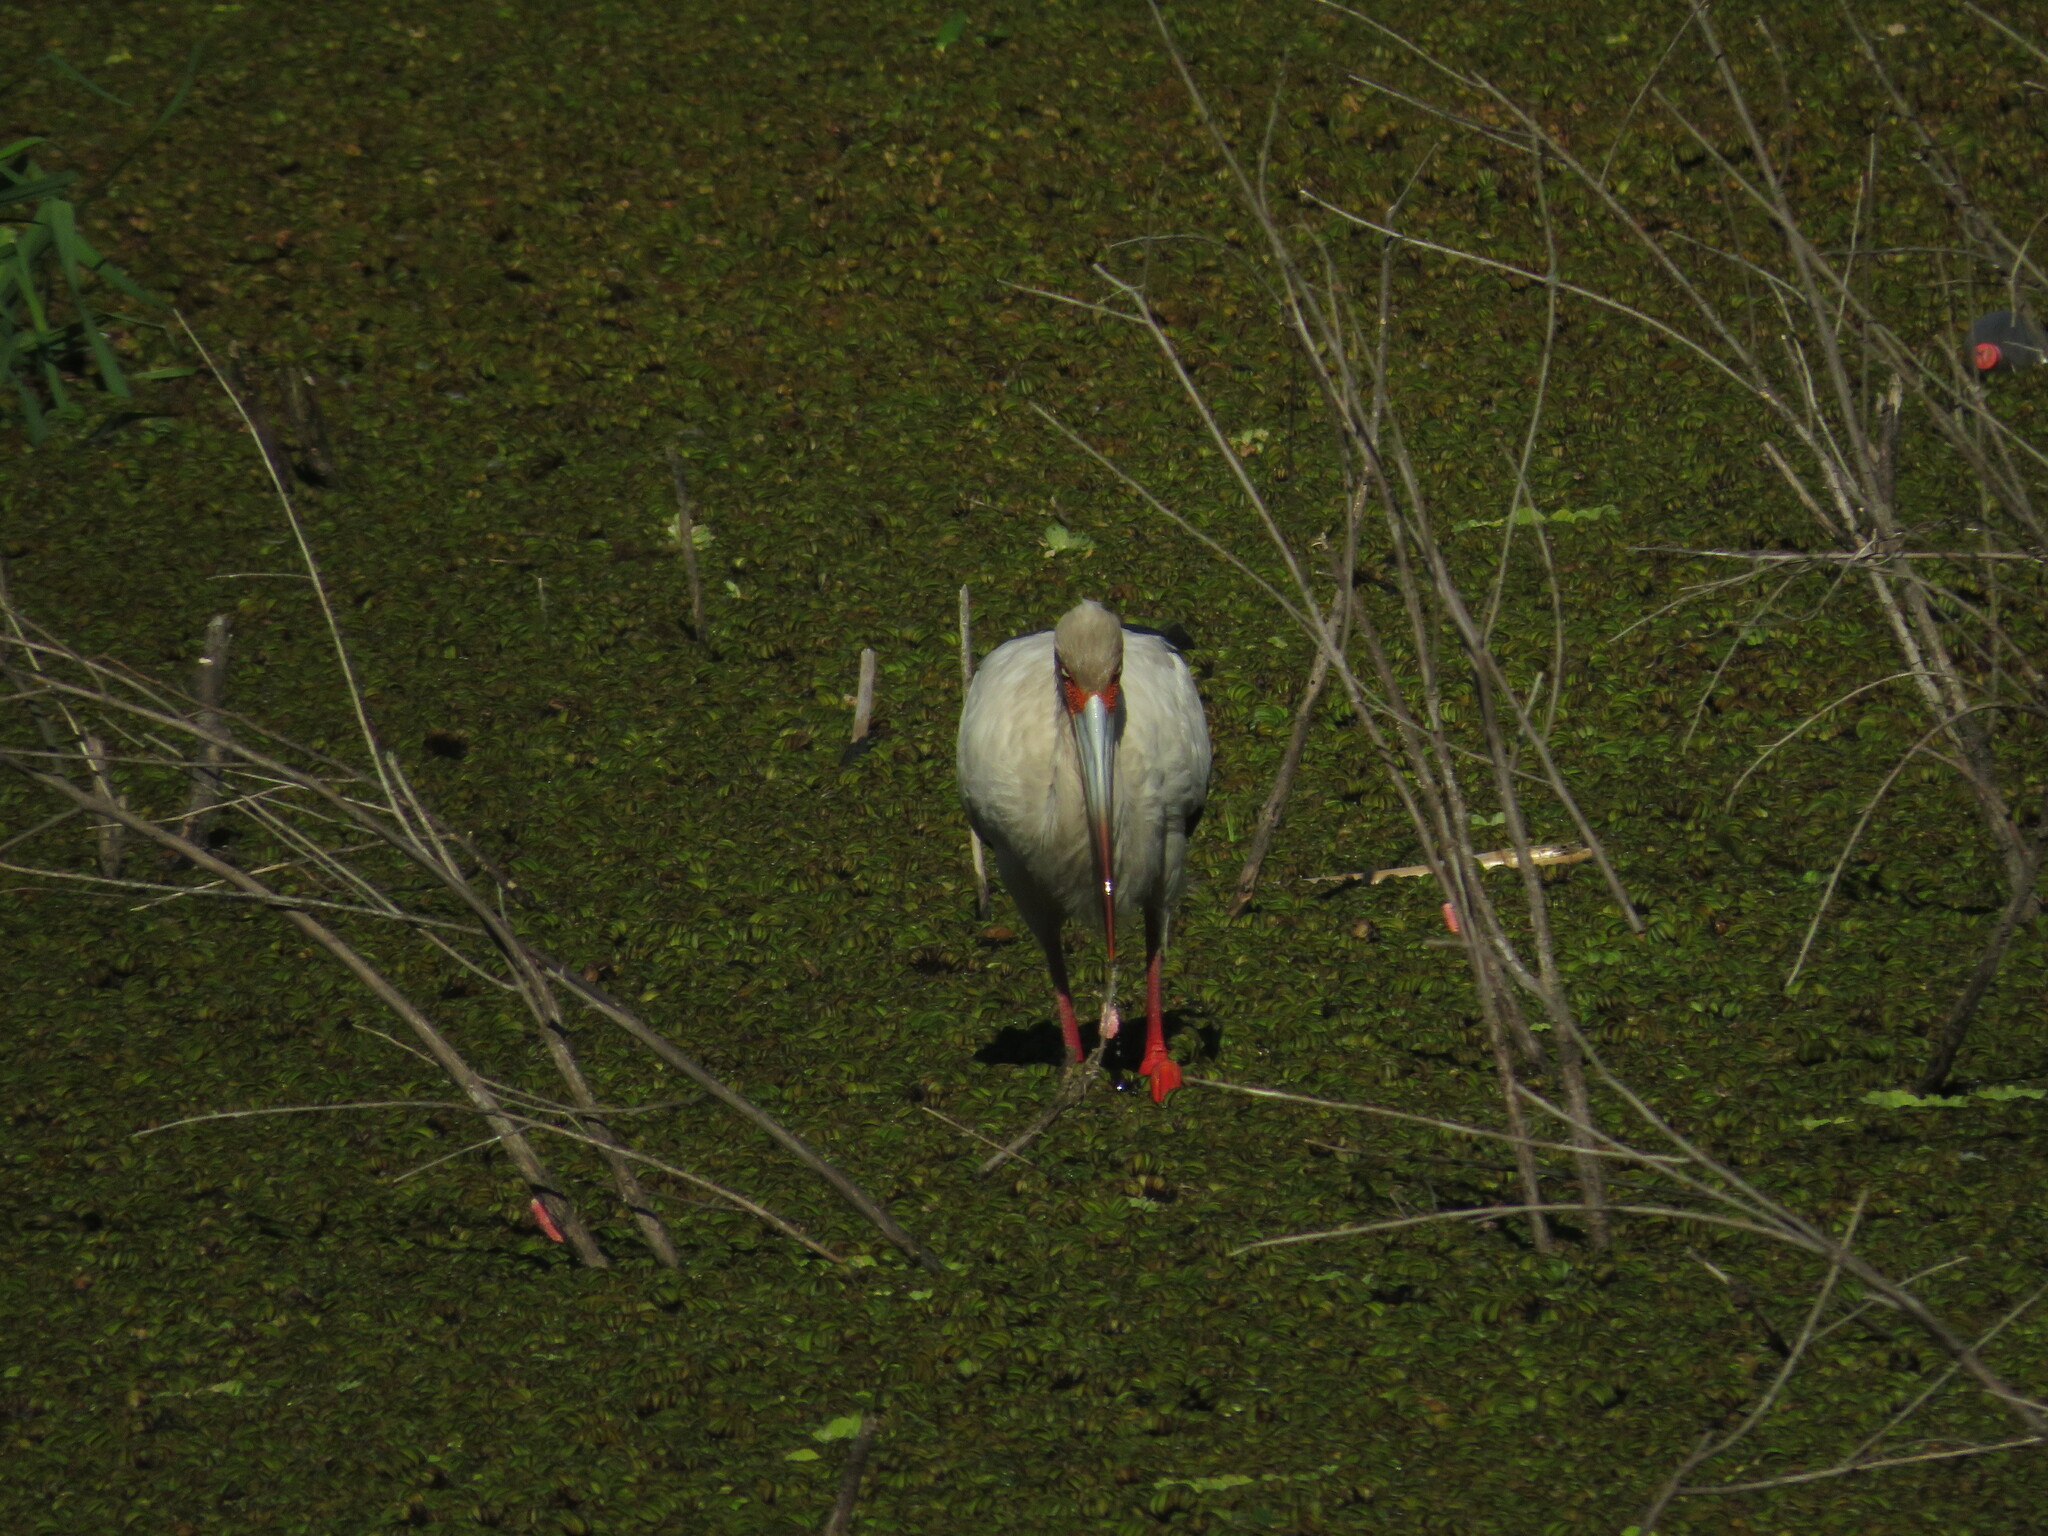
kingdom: Animalia
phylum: Chordata
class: Aves
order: Ciconiiformes
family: Ciconiidae
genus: Ciconia
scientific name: Ciconia maguari
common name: Maguari stork
